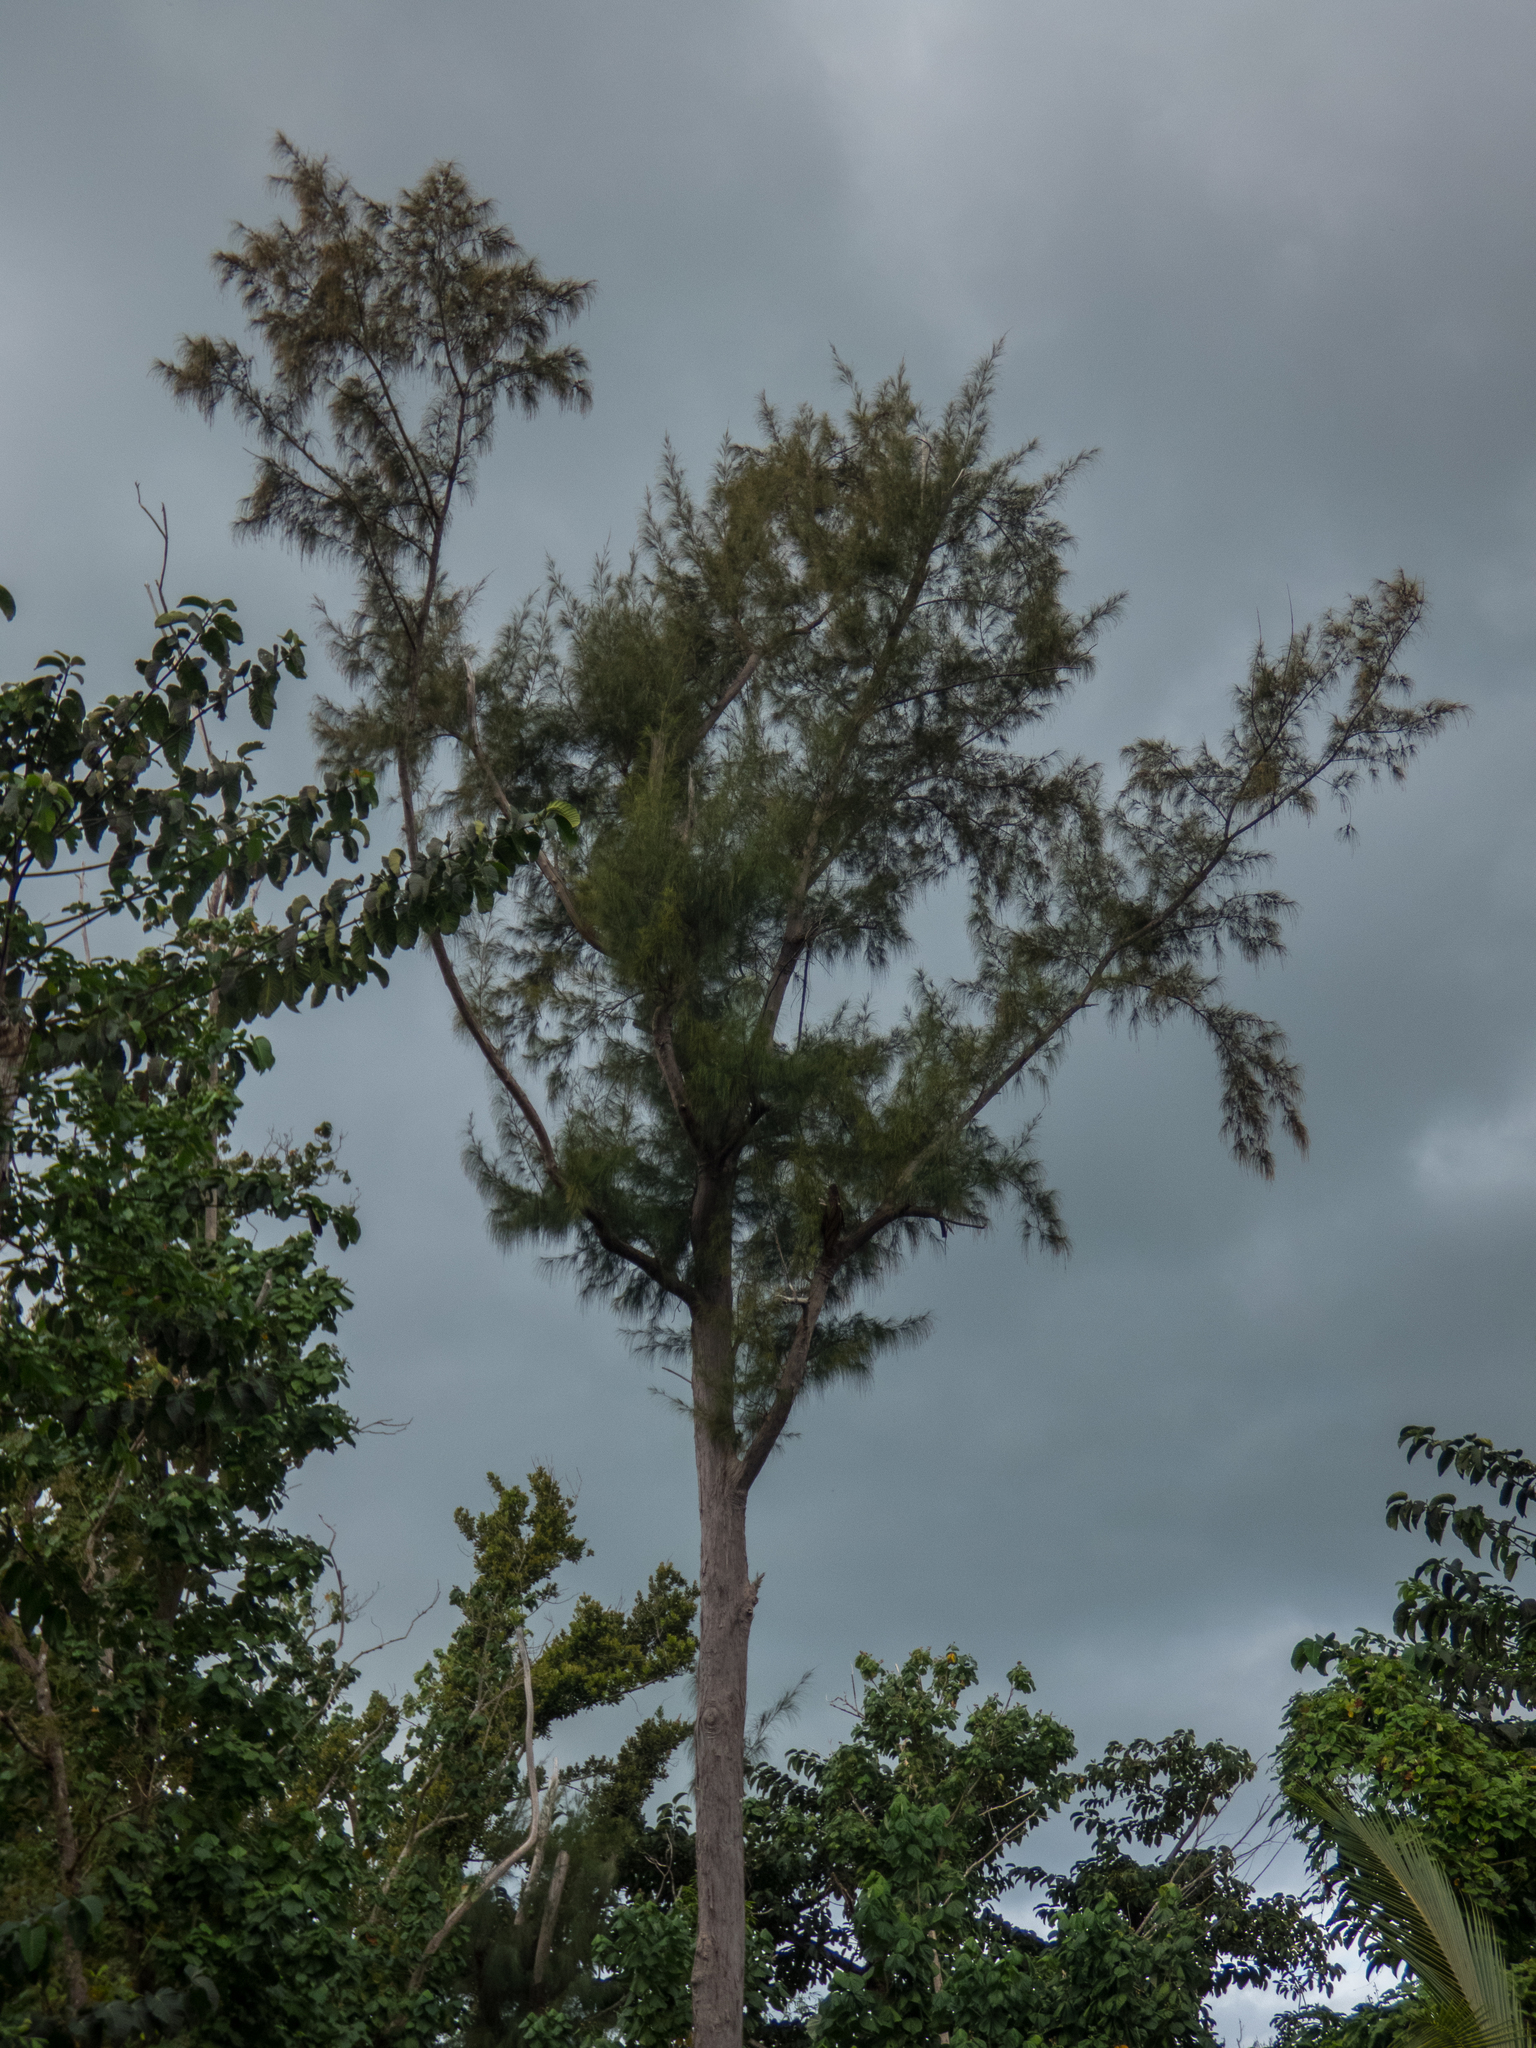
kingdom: Plantae
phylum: Tracheophyta
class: Magnoliopsida
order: Fagales
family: Casuarinaceae
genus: Casuarina
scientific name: Casuarina equisetifolia
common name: Beach sheoak
